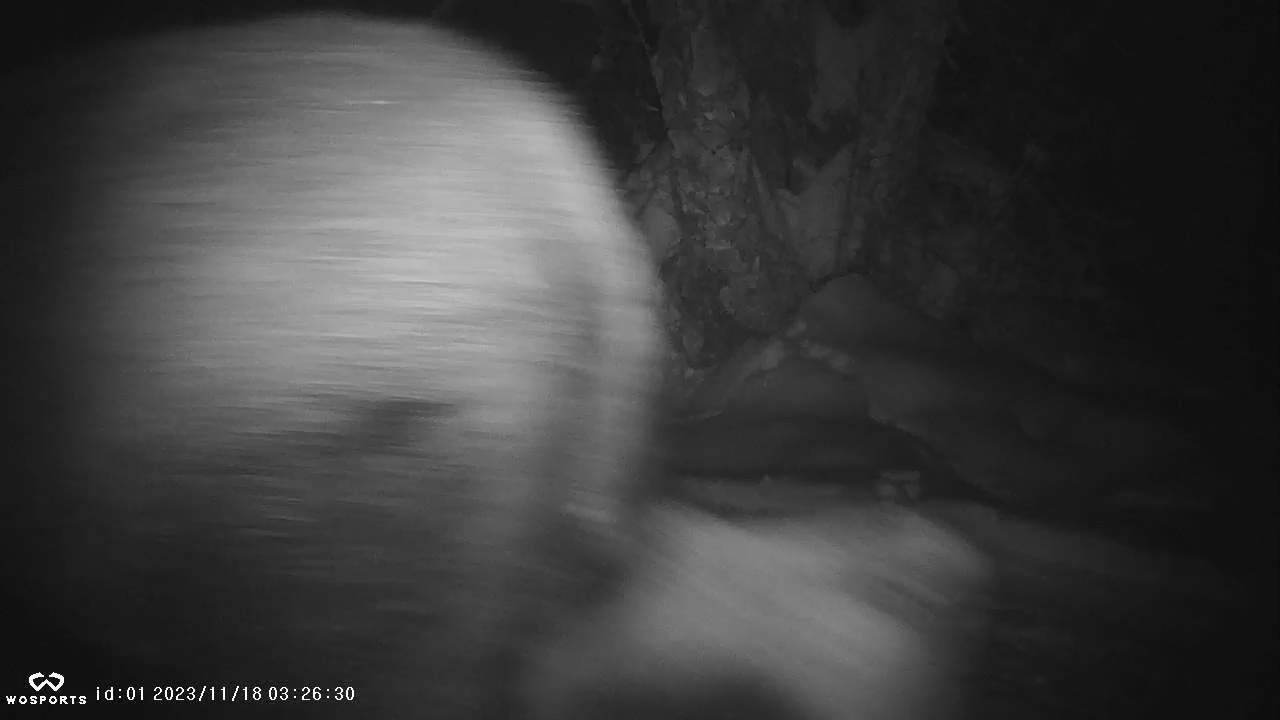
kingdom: Animalia
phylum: Chordata
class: Mammalia
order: Artiodactyla
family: Cervidae
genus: Alces
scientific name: Alces alces
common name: Moose
